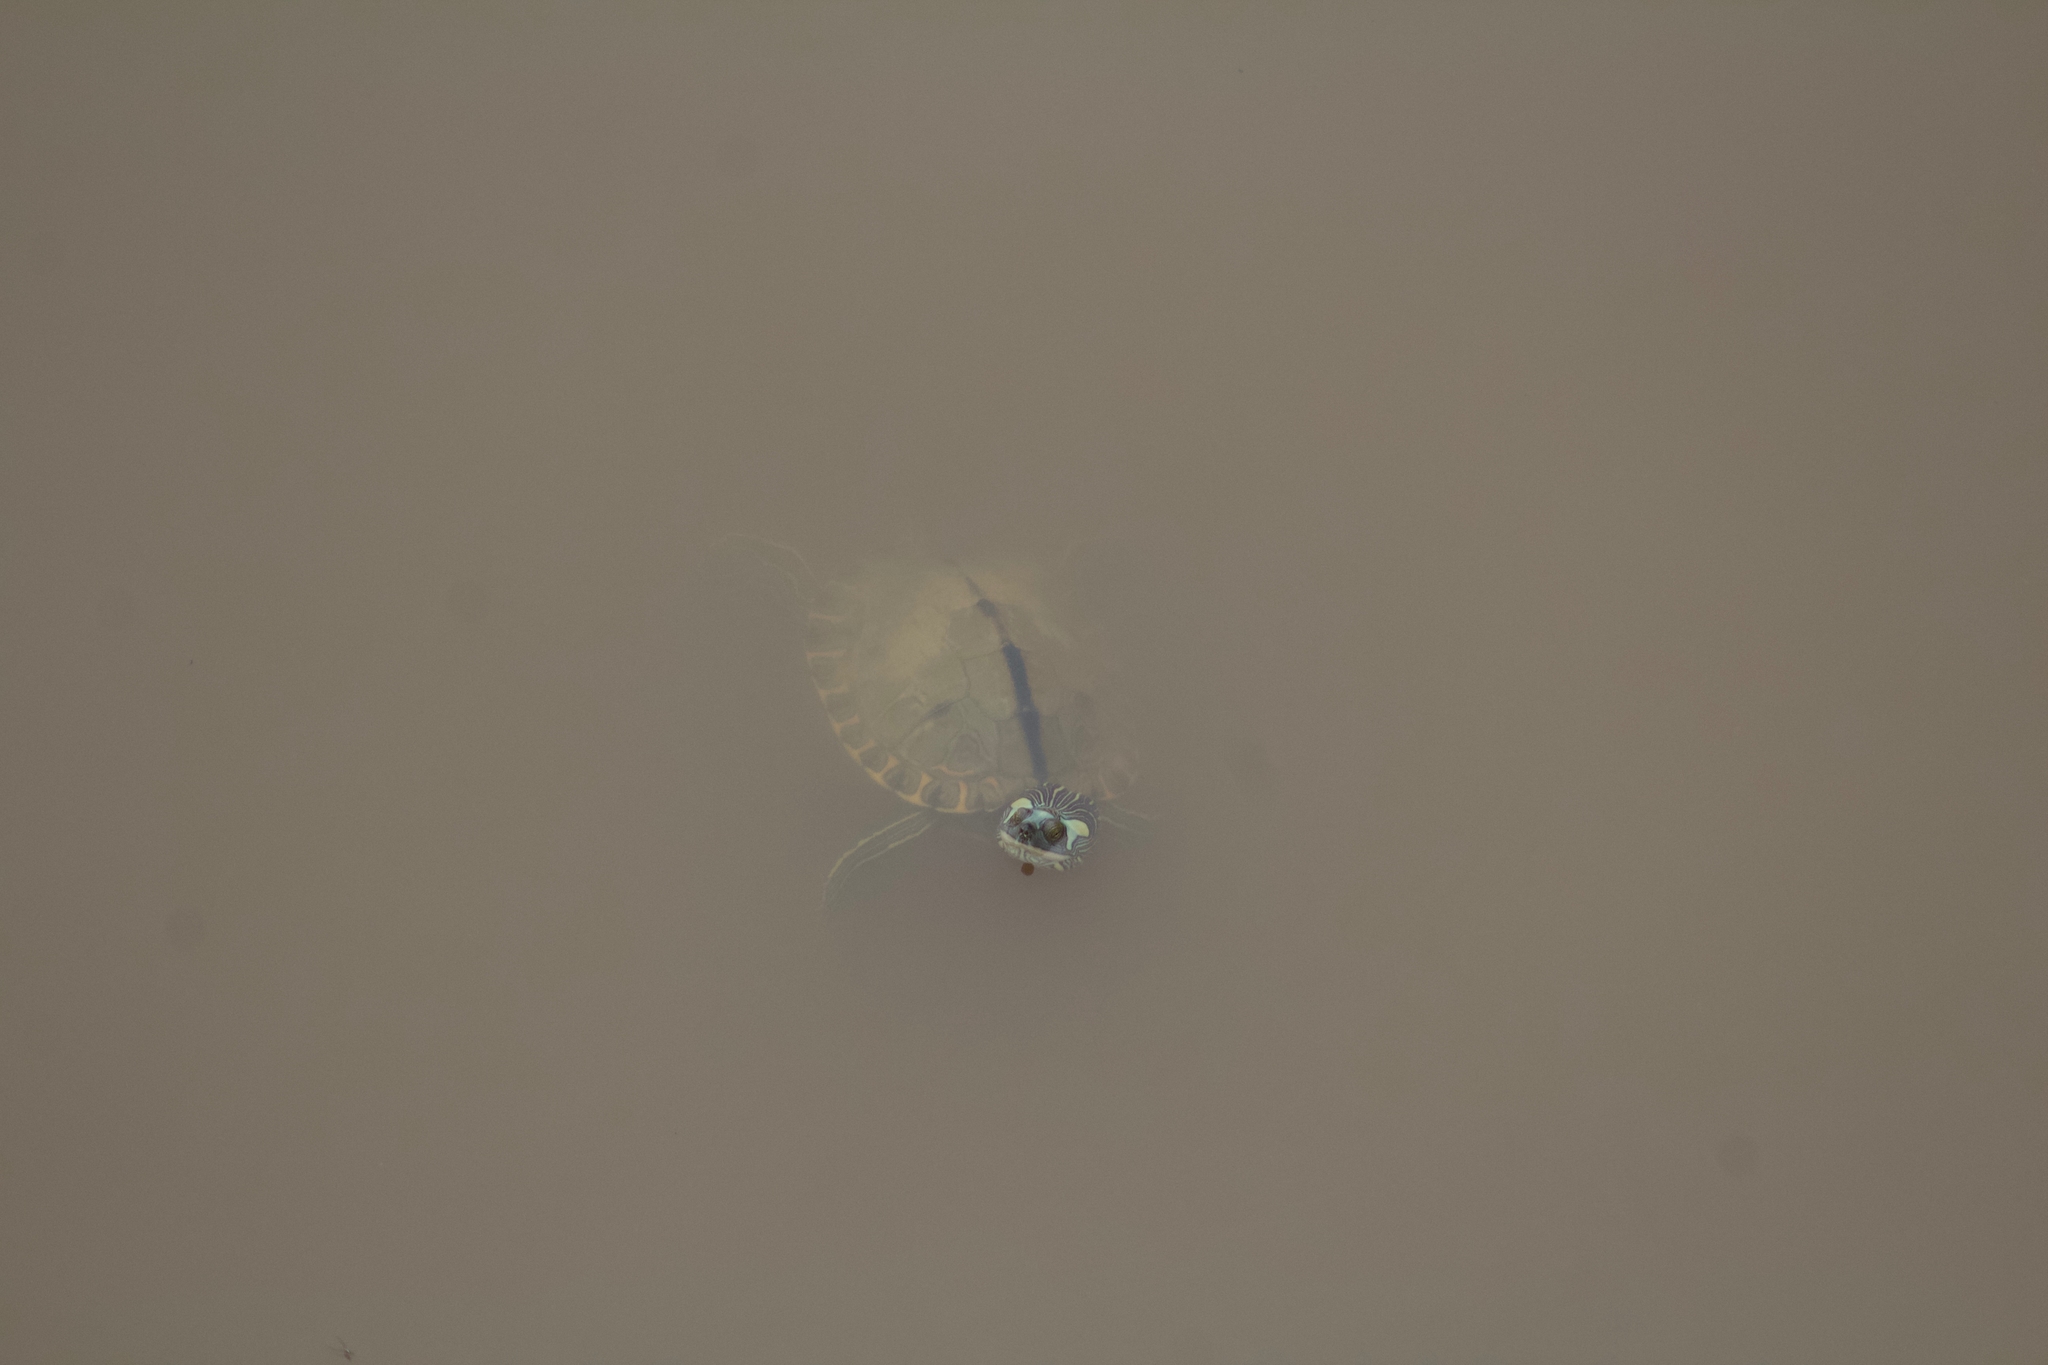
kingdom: Animalia
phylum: Chordata
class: Testudines
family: Emydidae
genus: Graptemys
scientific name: Graptemys gibbonsi
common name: Pascagoula map turtle
